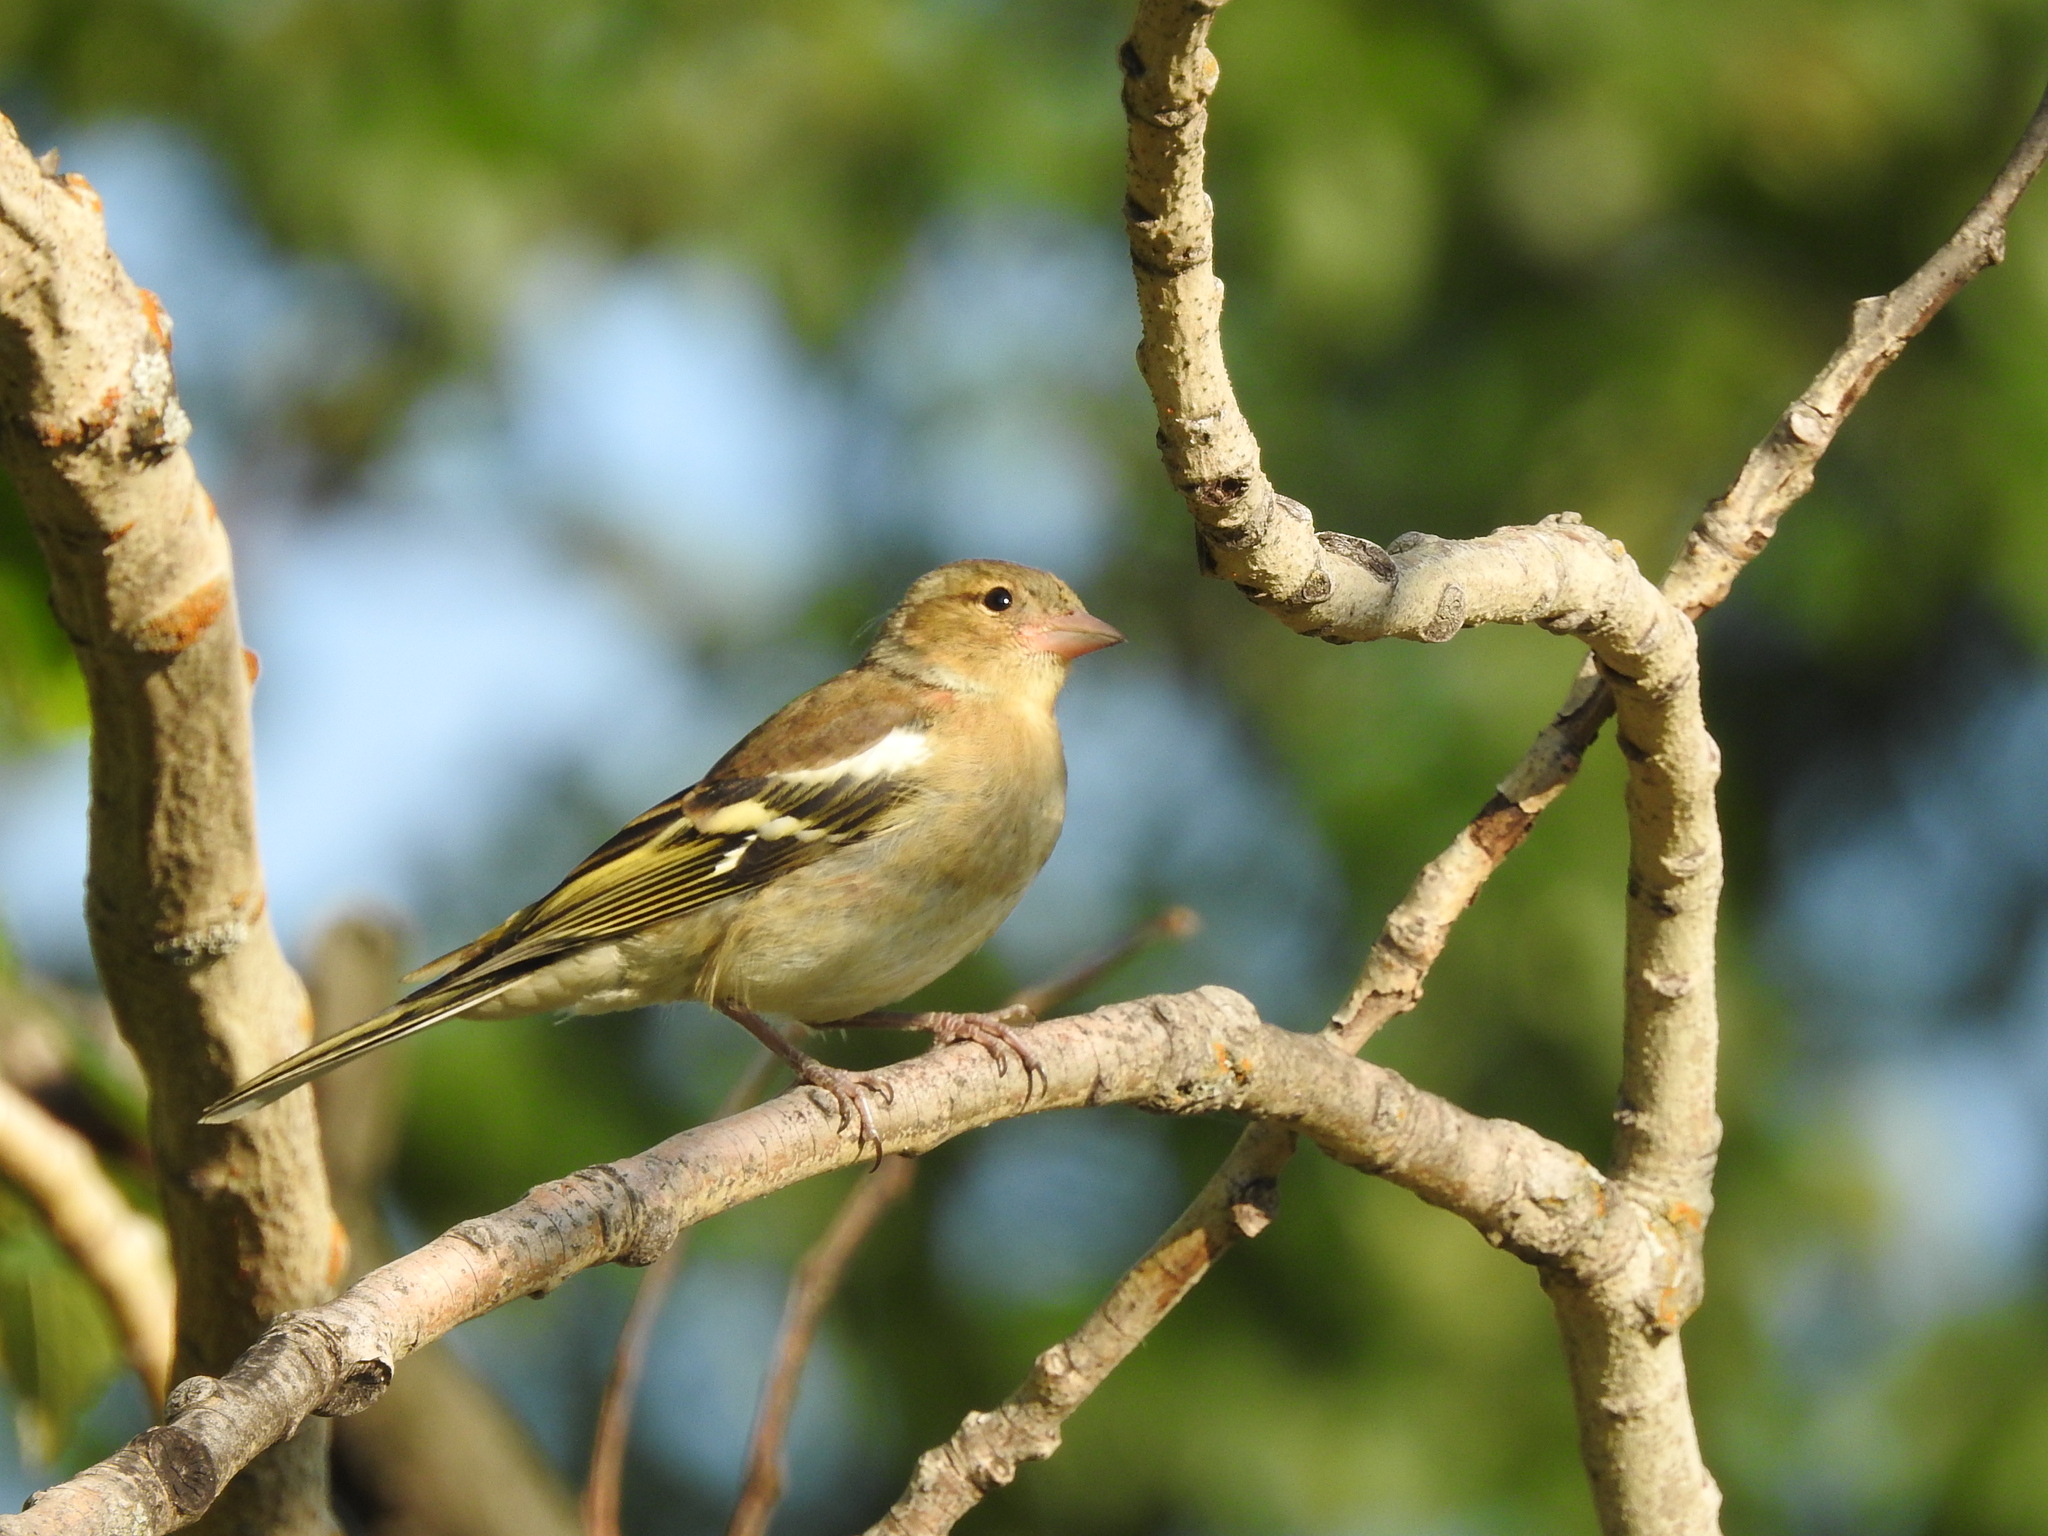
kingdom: Animalia
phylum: Chordata
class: Aves
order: Passeriformes
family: Fringillidae
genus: Fringilla
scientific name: Fringilla coelebs
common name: Common chaffinch
